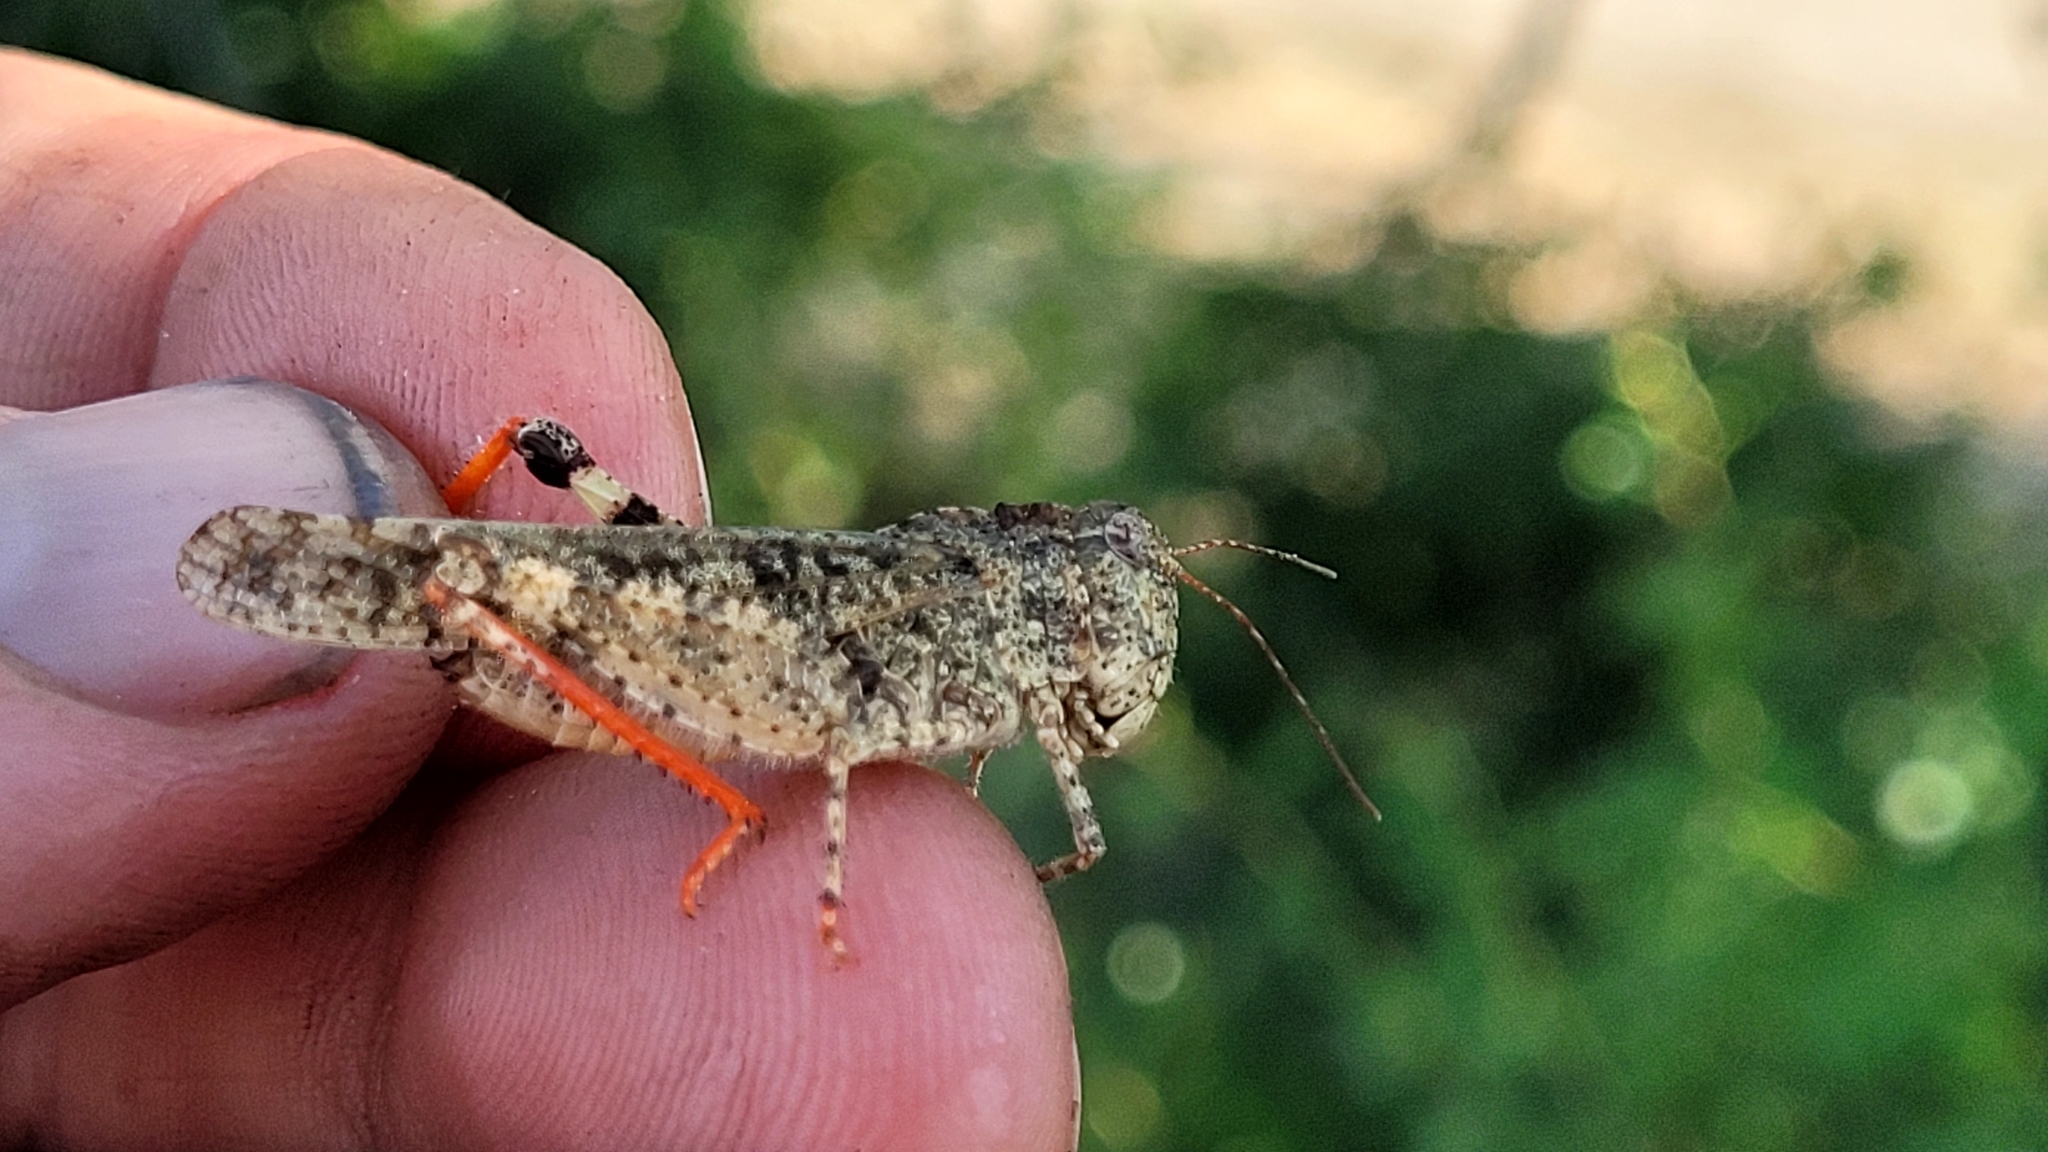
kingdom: Animalia
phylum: Arthropoda
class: Insecta
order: Orthoptera
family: Acrididae
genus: Spharagemon
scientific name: Spharagemon collare
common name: Mottled sand grasshopper
